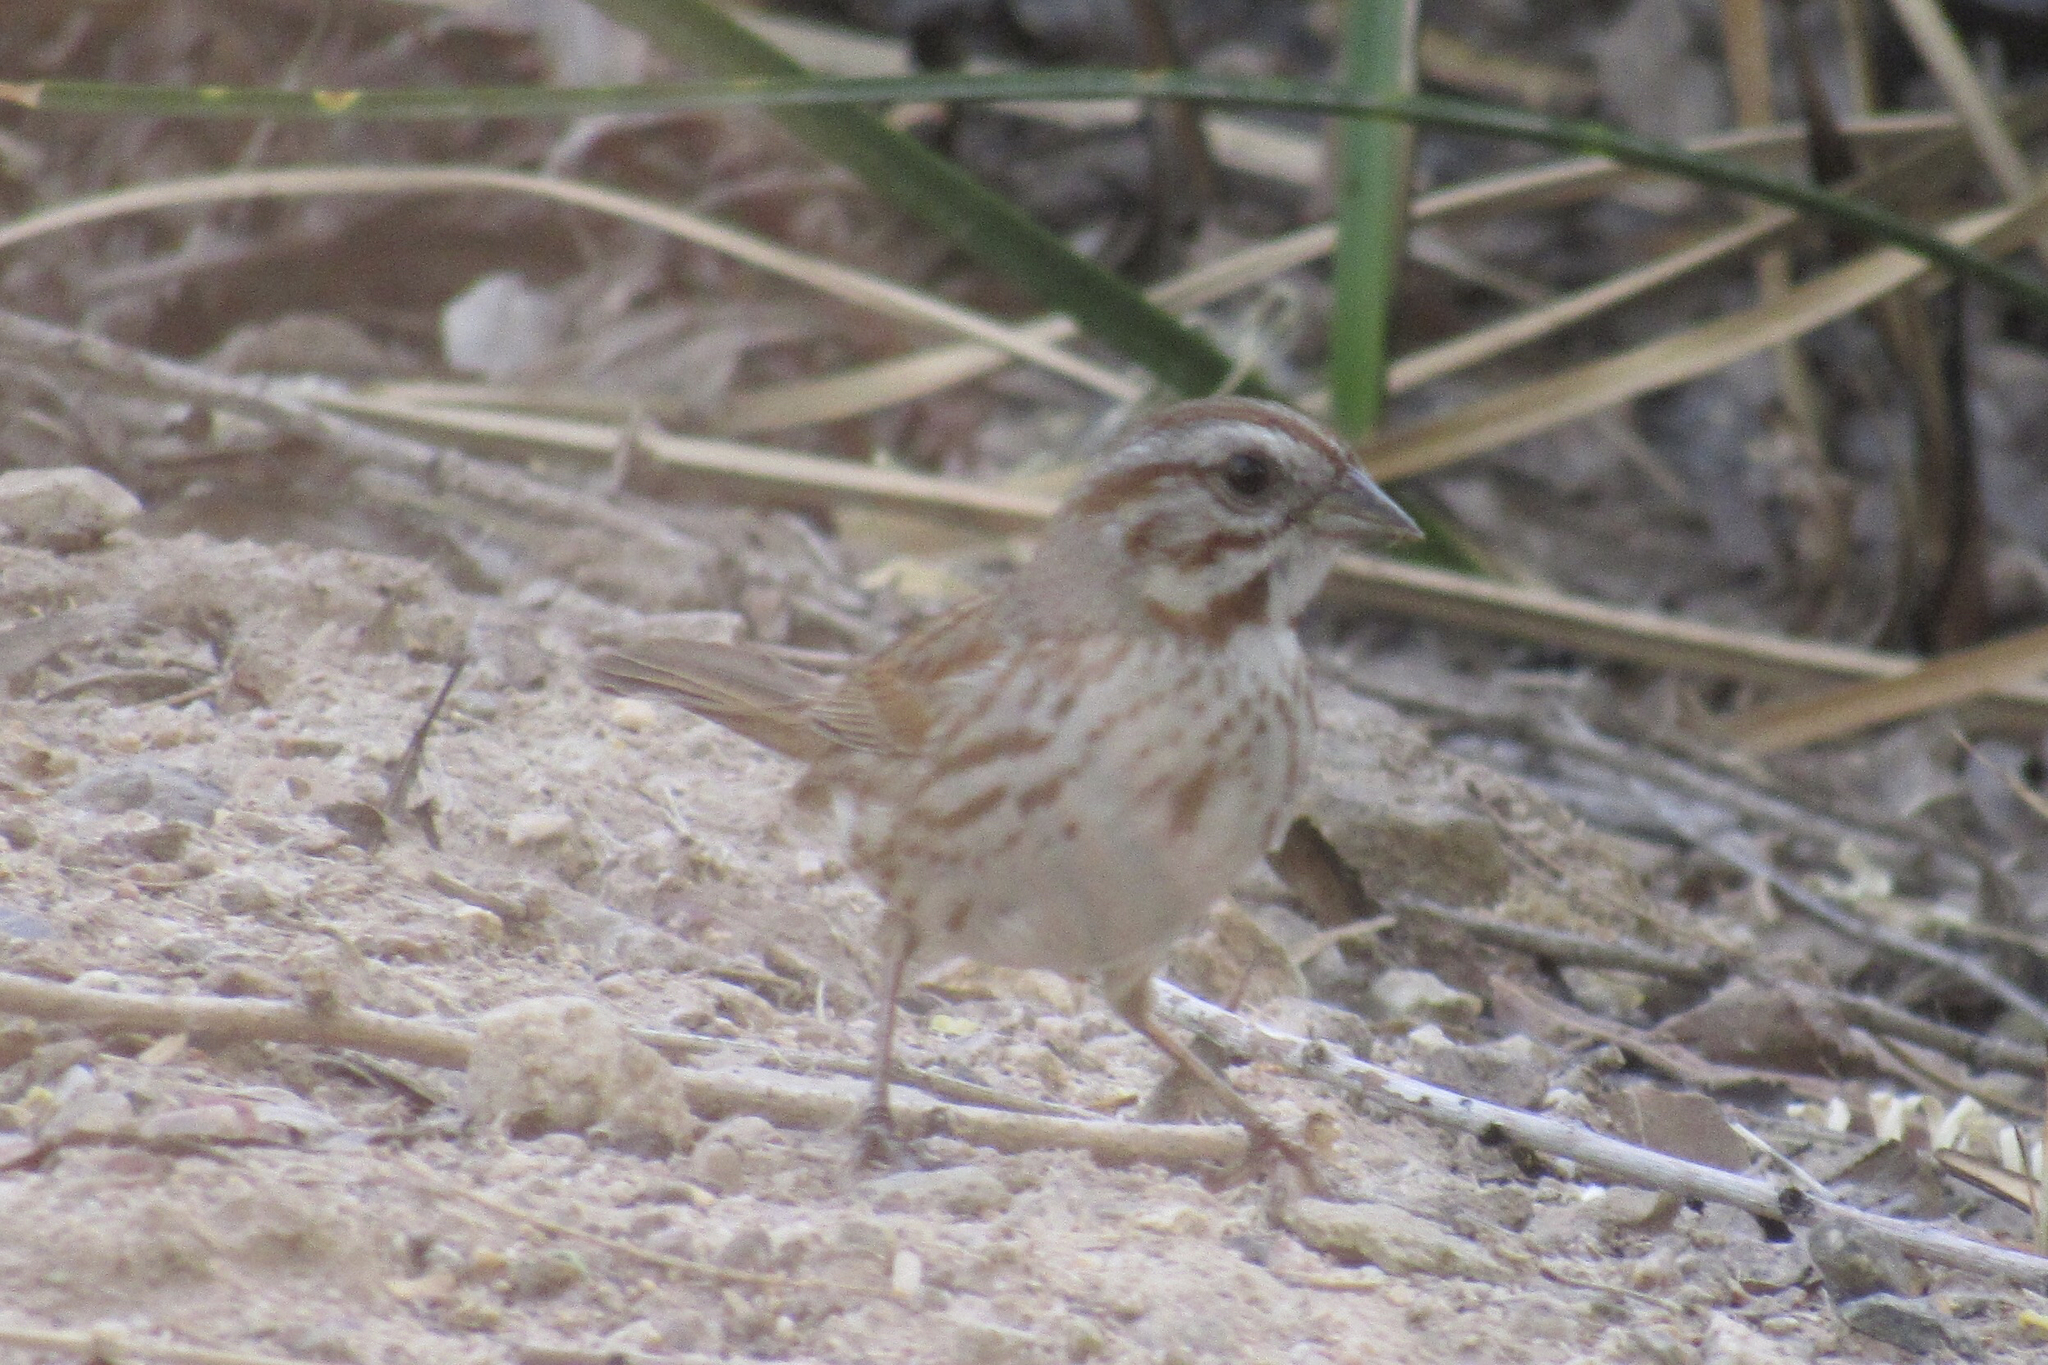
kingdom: Animalia
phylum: Chordata
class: Aves
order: Passeriformes
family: Passerellidae
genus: Melospiza
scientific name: Melospiza melodia
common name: Song sparrow
